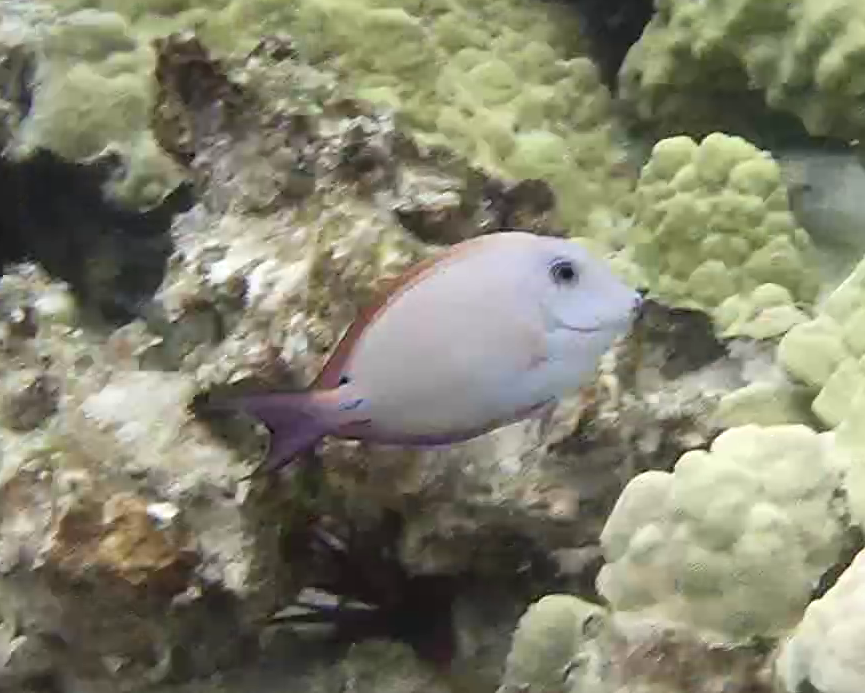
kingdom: Animalia
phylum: Chordata
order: Perciformes
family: Acanthuridae
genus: Acanthurus
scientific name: Acanthurus nigrofuscus
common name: Blackspot surgeonfish
